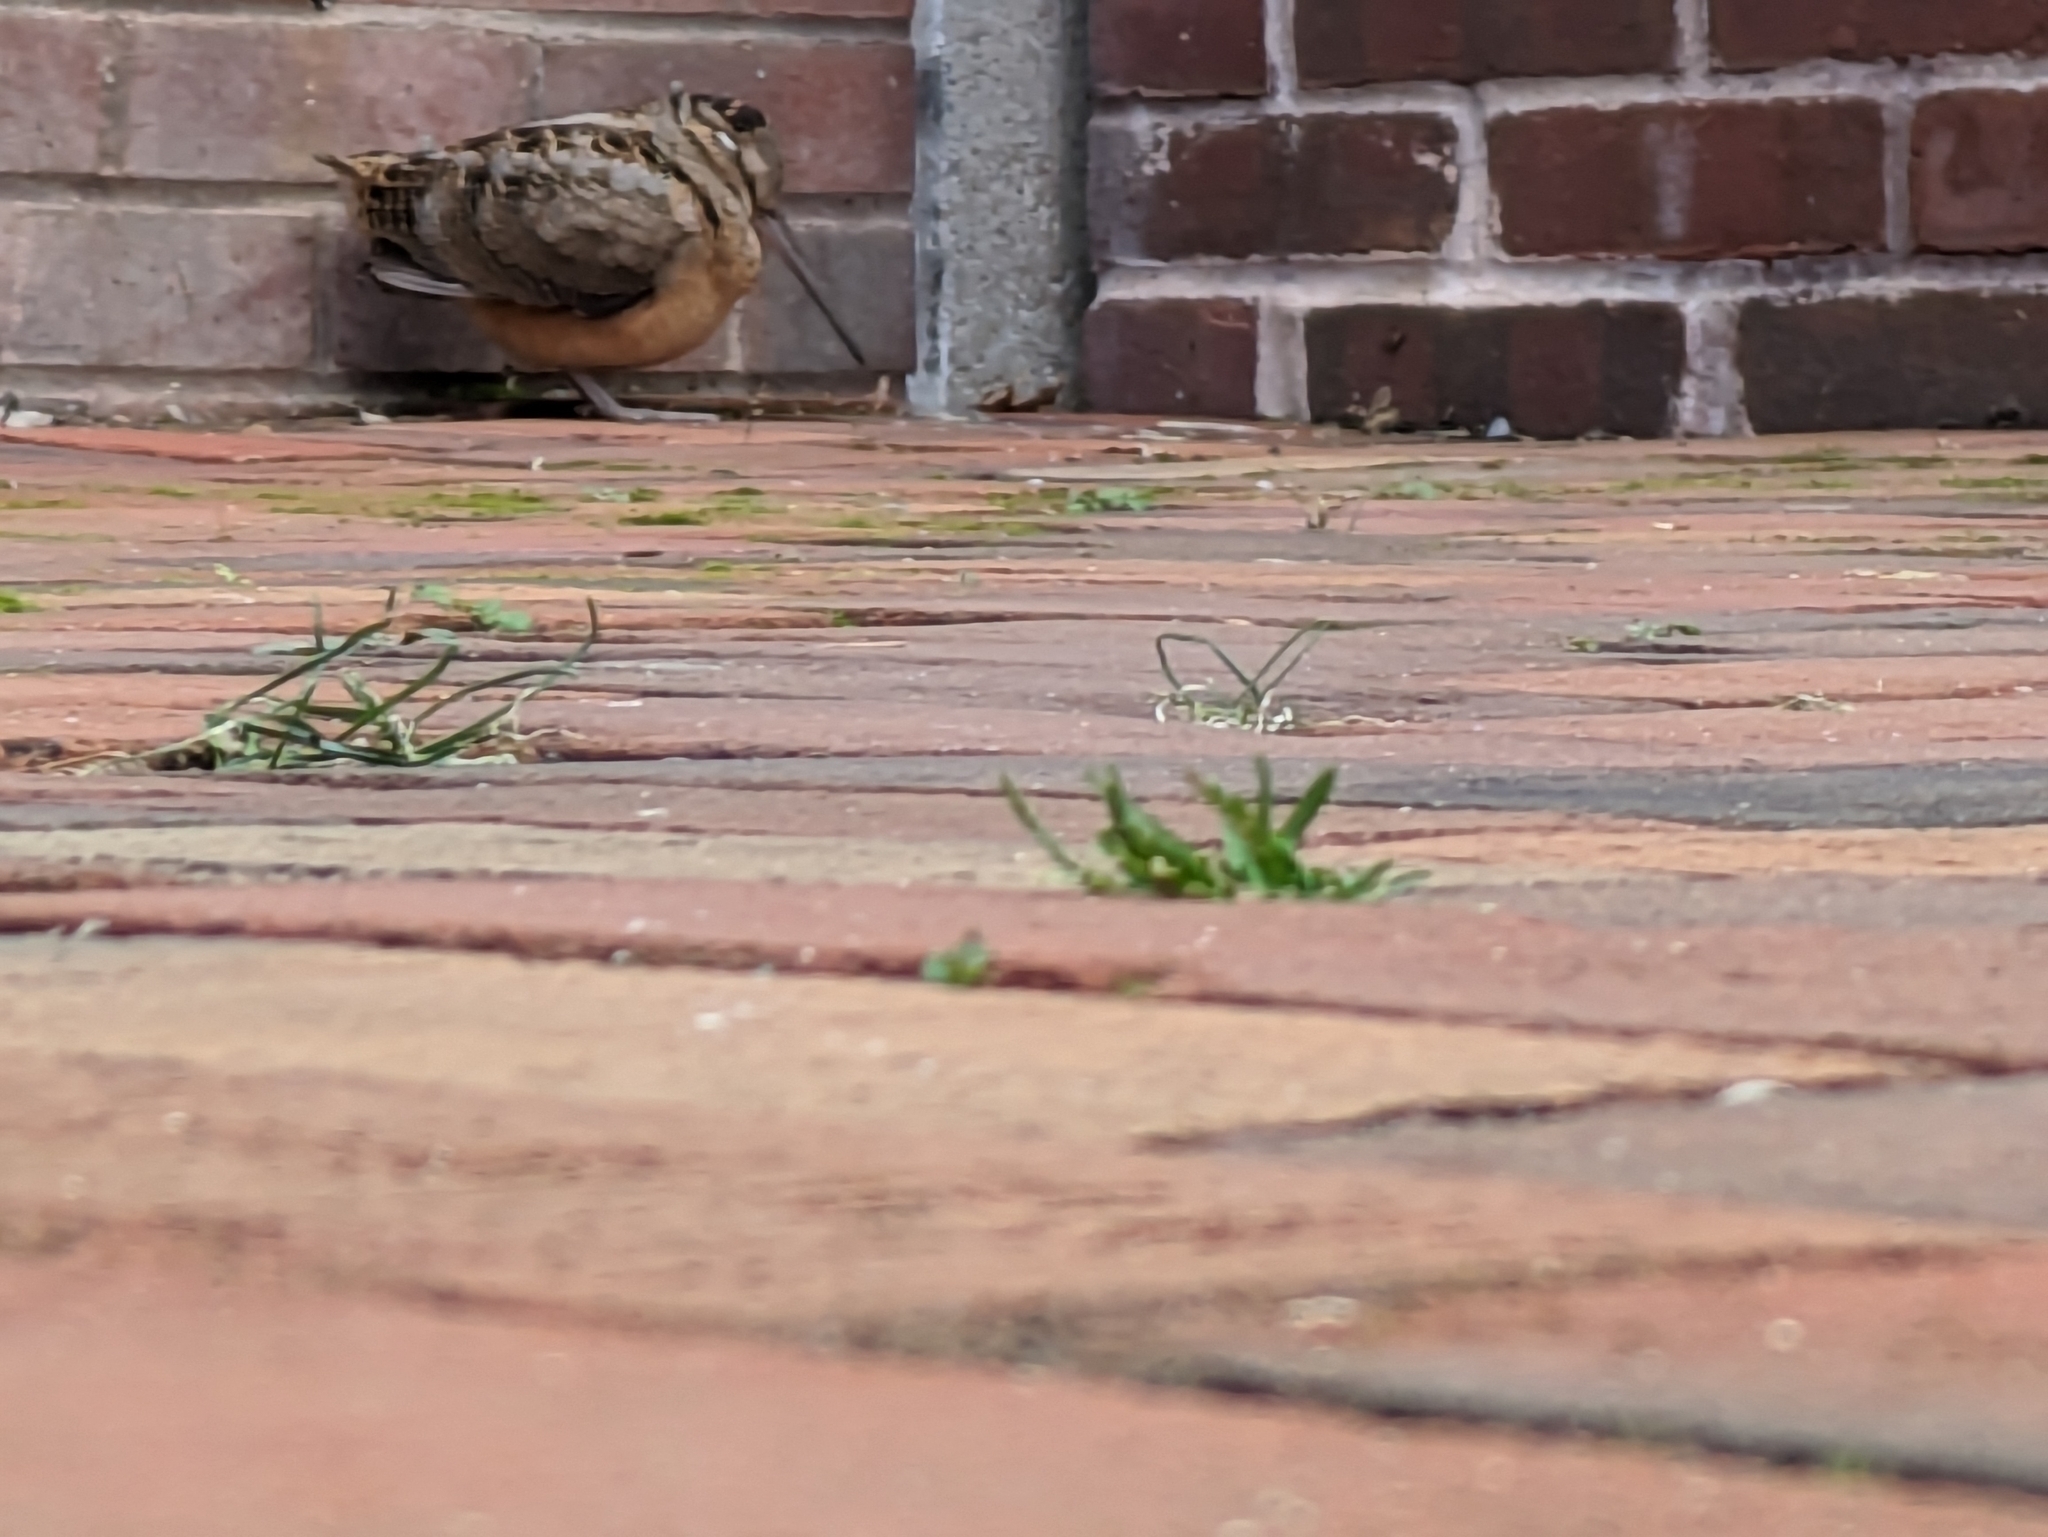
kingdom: Animalia
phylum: Chordata
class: Aves
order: Charadriiformes
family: Scolopacidae
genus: Scolopax
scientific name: Scolopax minor
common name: American woodcock
